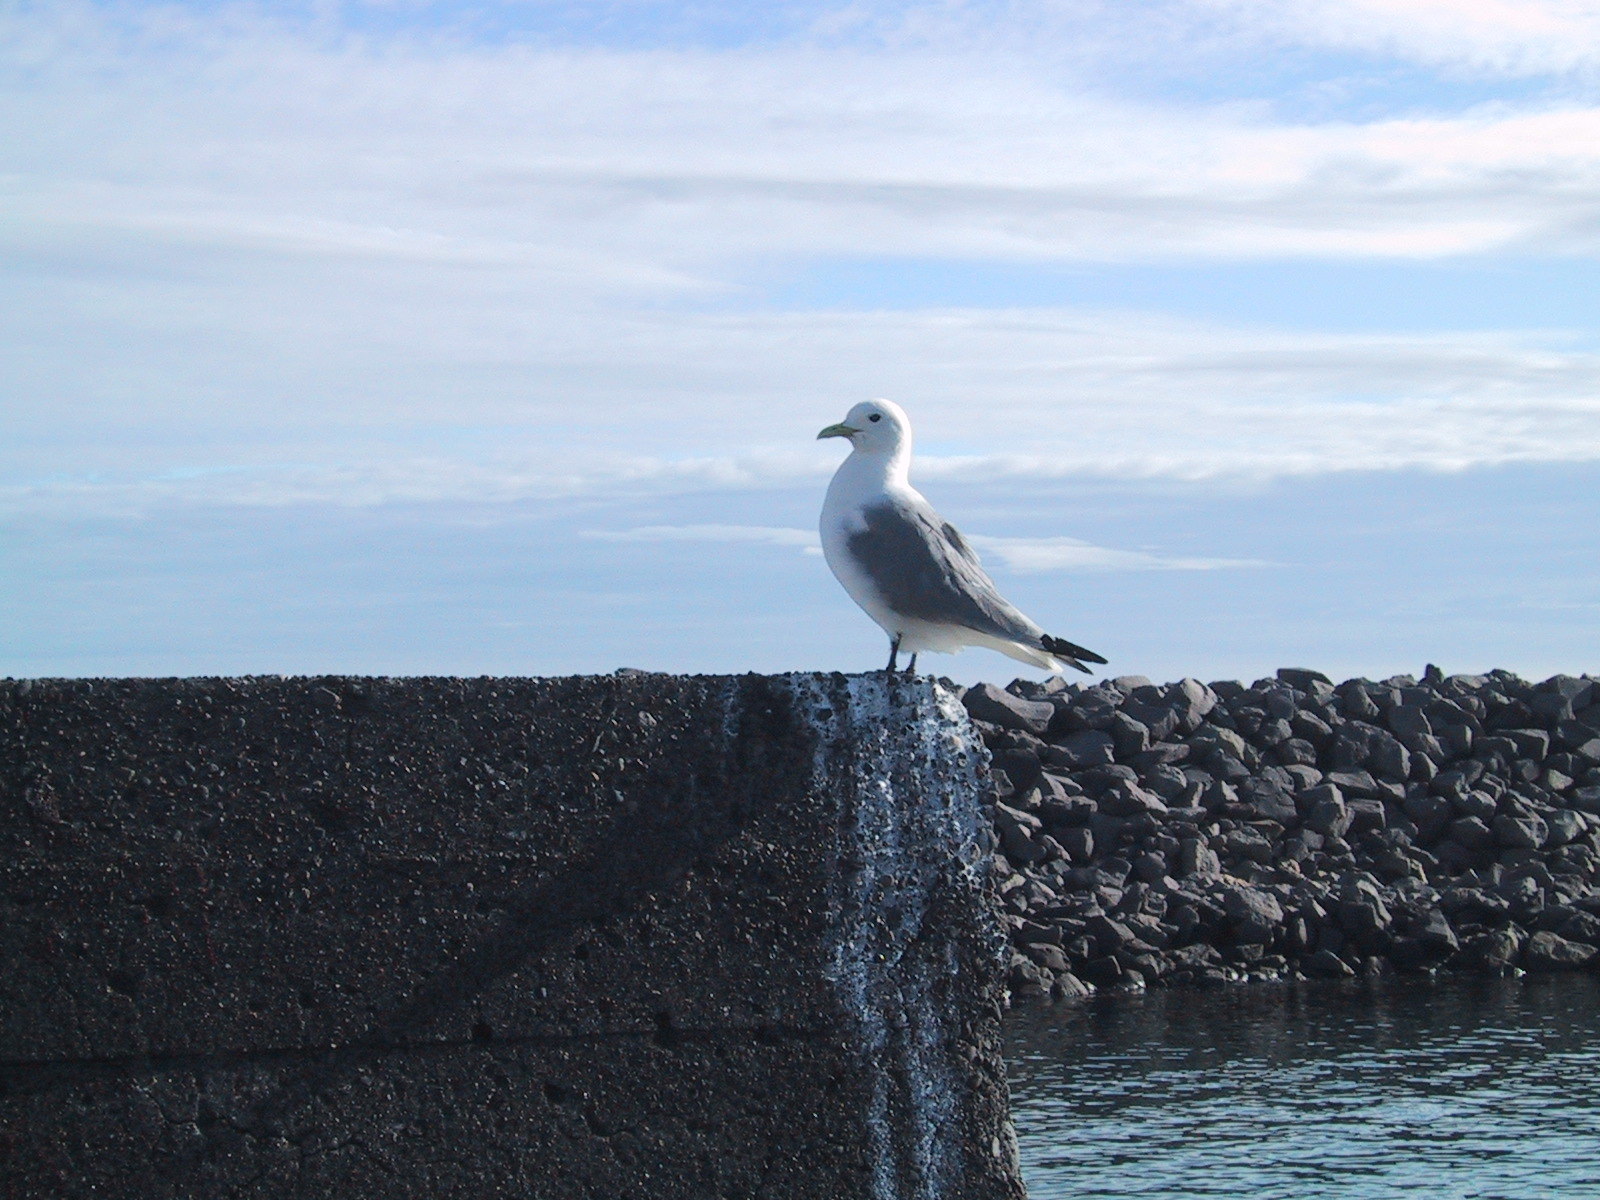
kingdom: Animalia
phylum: Chordata
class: Aves
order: Charadriiformes
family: Laridae
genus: Rissa
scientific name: Rissa tridactyla
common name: Black-legged kittiwake
